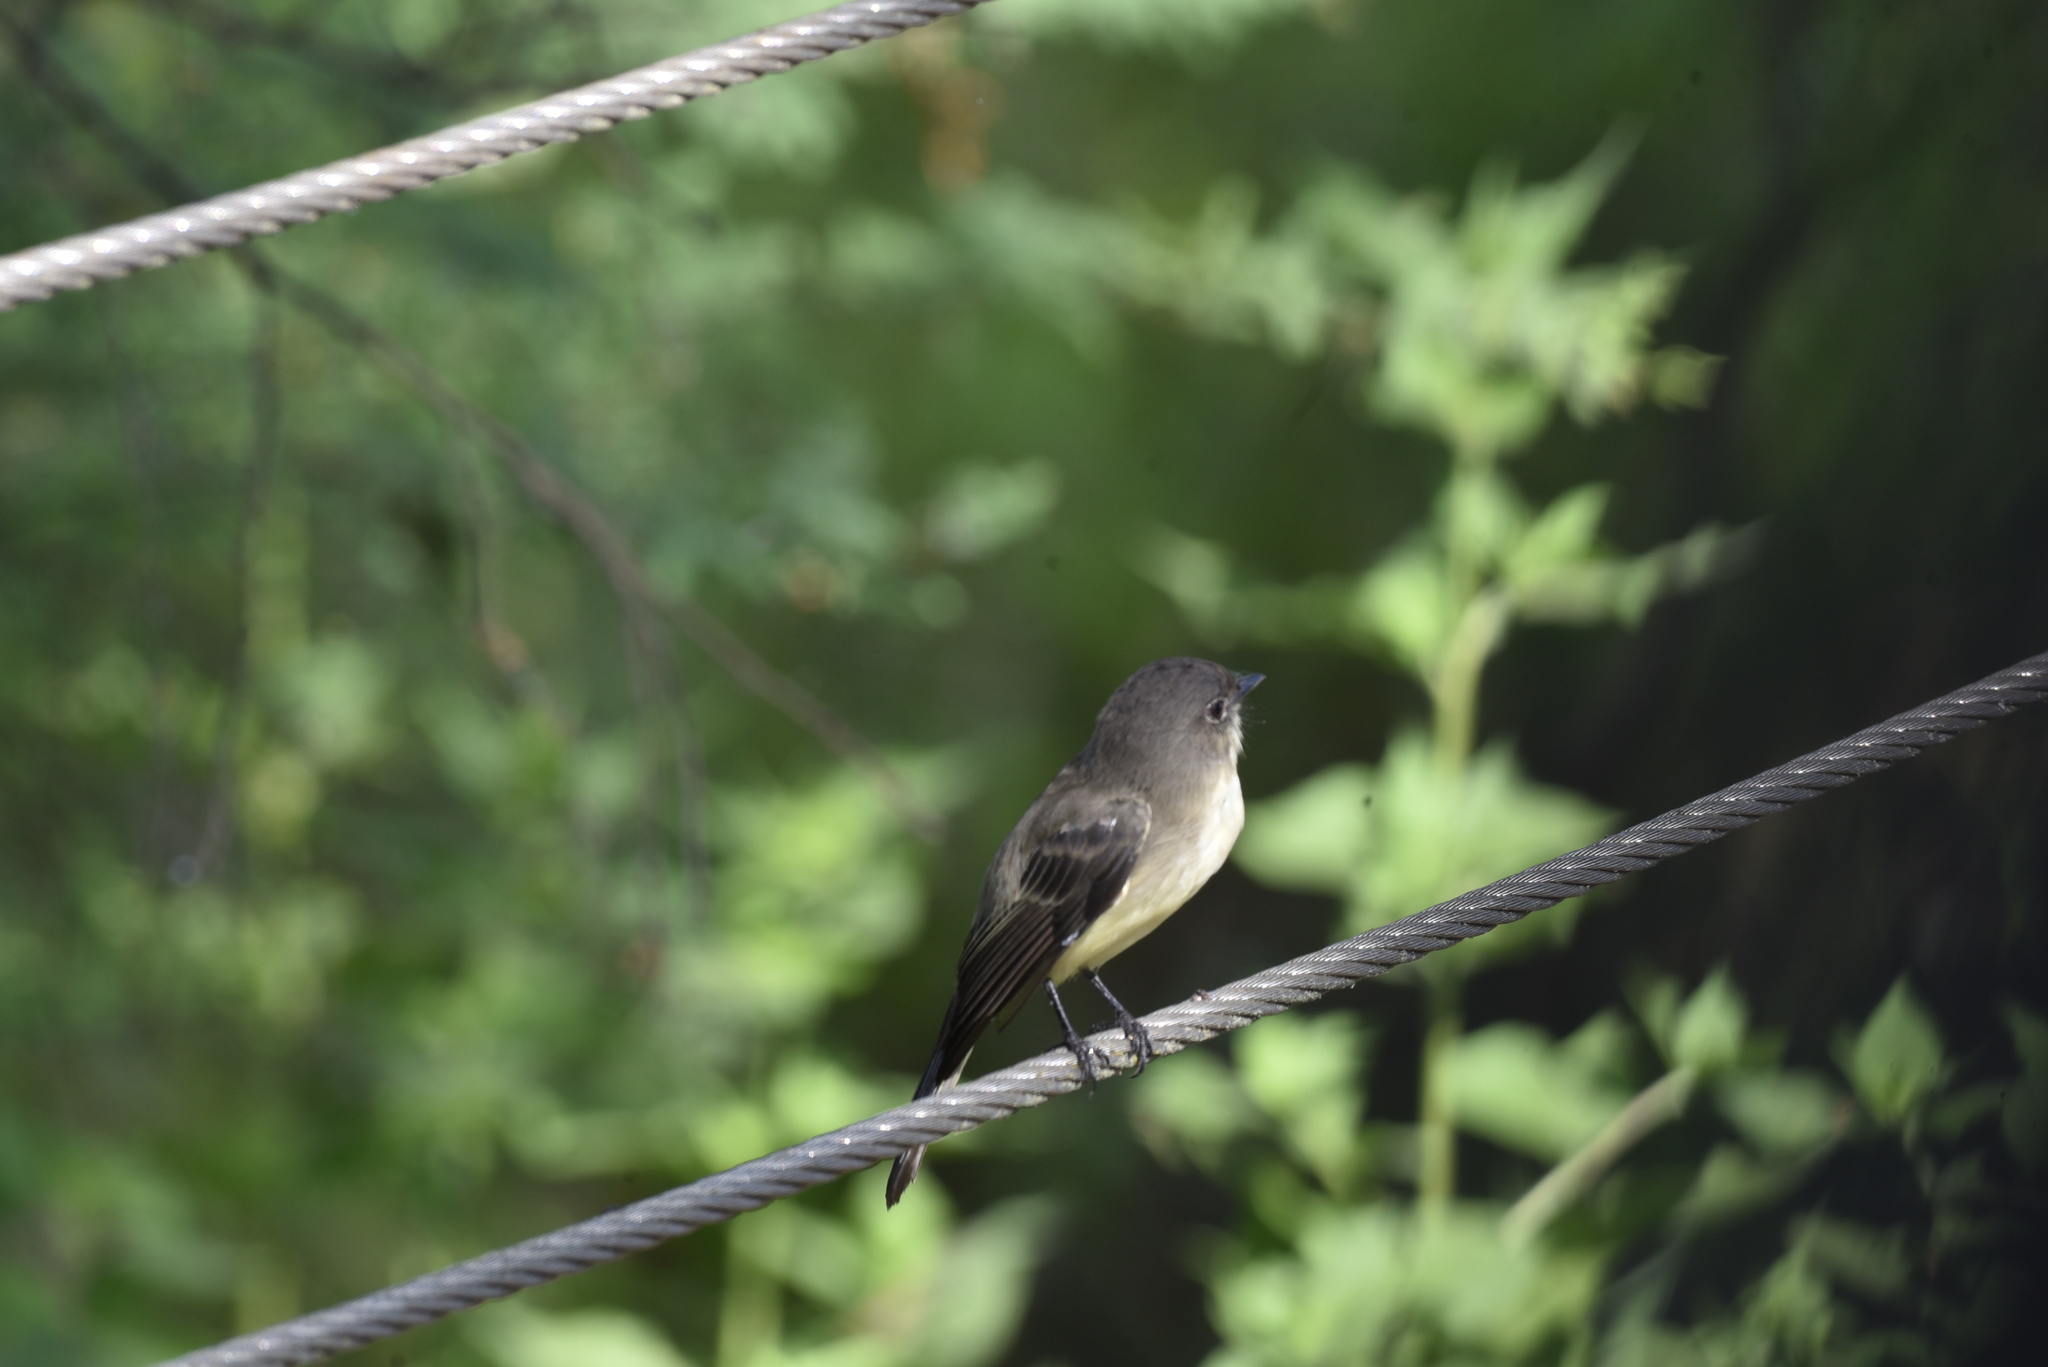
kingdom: Animalia
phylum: Chordata
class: Aves
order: Passeriformes
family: Tyrannidae
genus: Sayornis
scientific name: Sayornis phoebe
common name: Eastern phoebe
